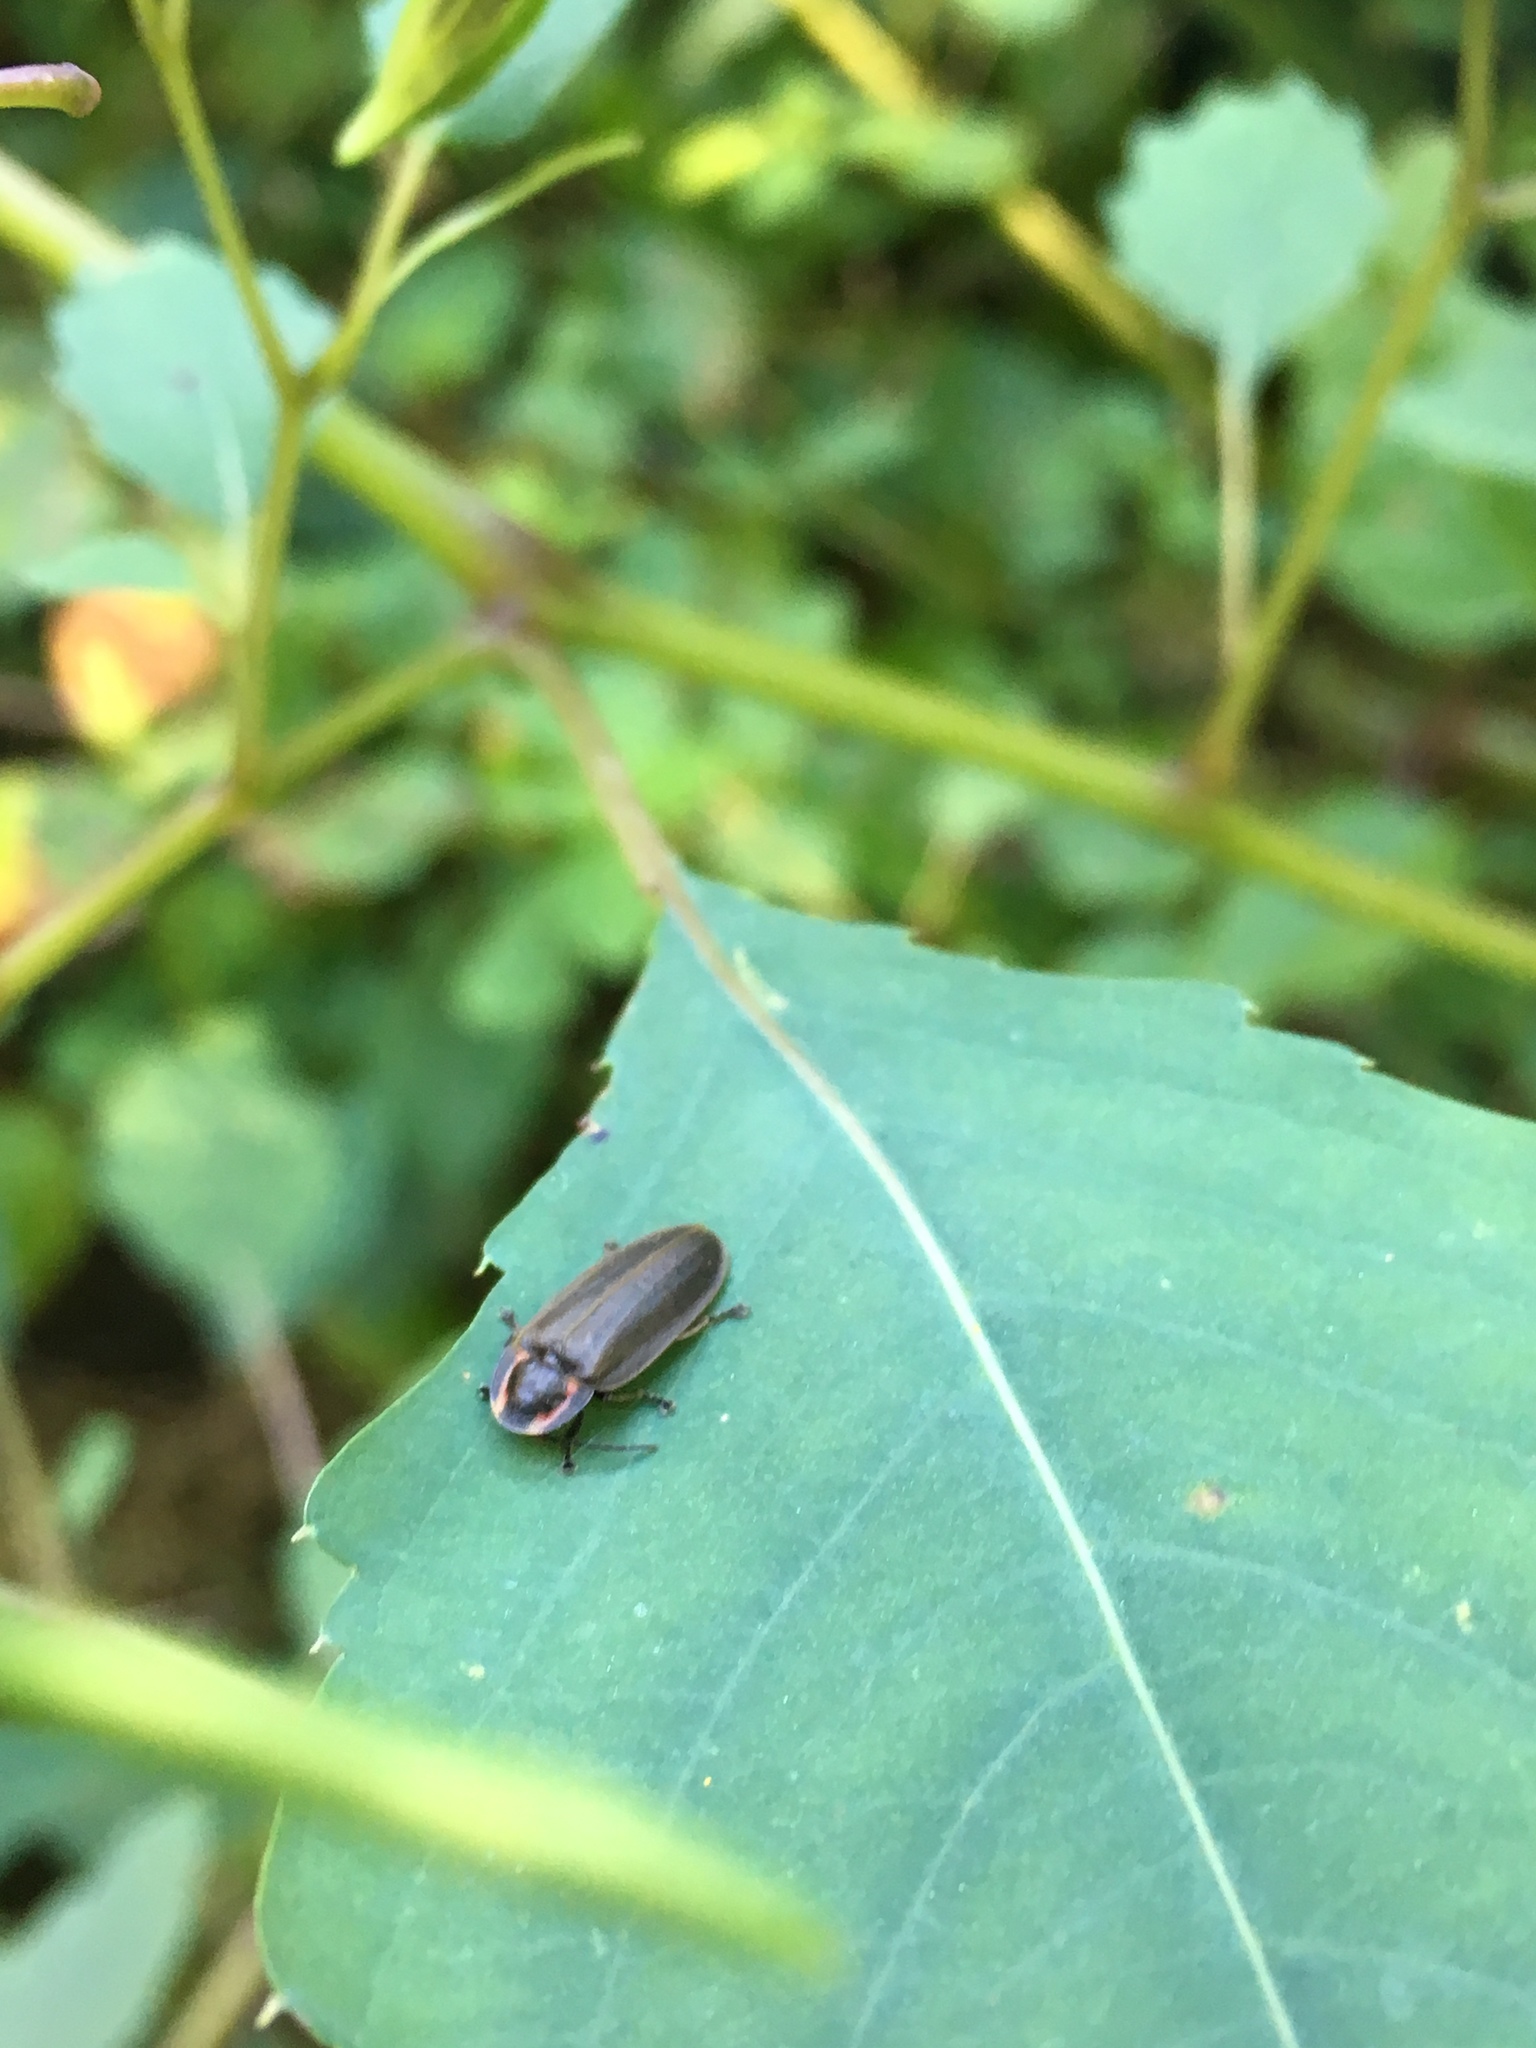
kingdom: Animalia
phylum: Arthropoda
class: Insecta
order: Coleoptera
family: Lampyridae
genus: Photinus
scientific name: Photinus corrusca
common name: Winter firefly
